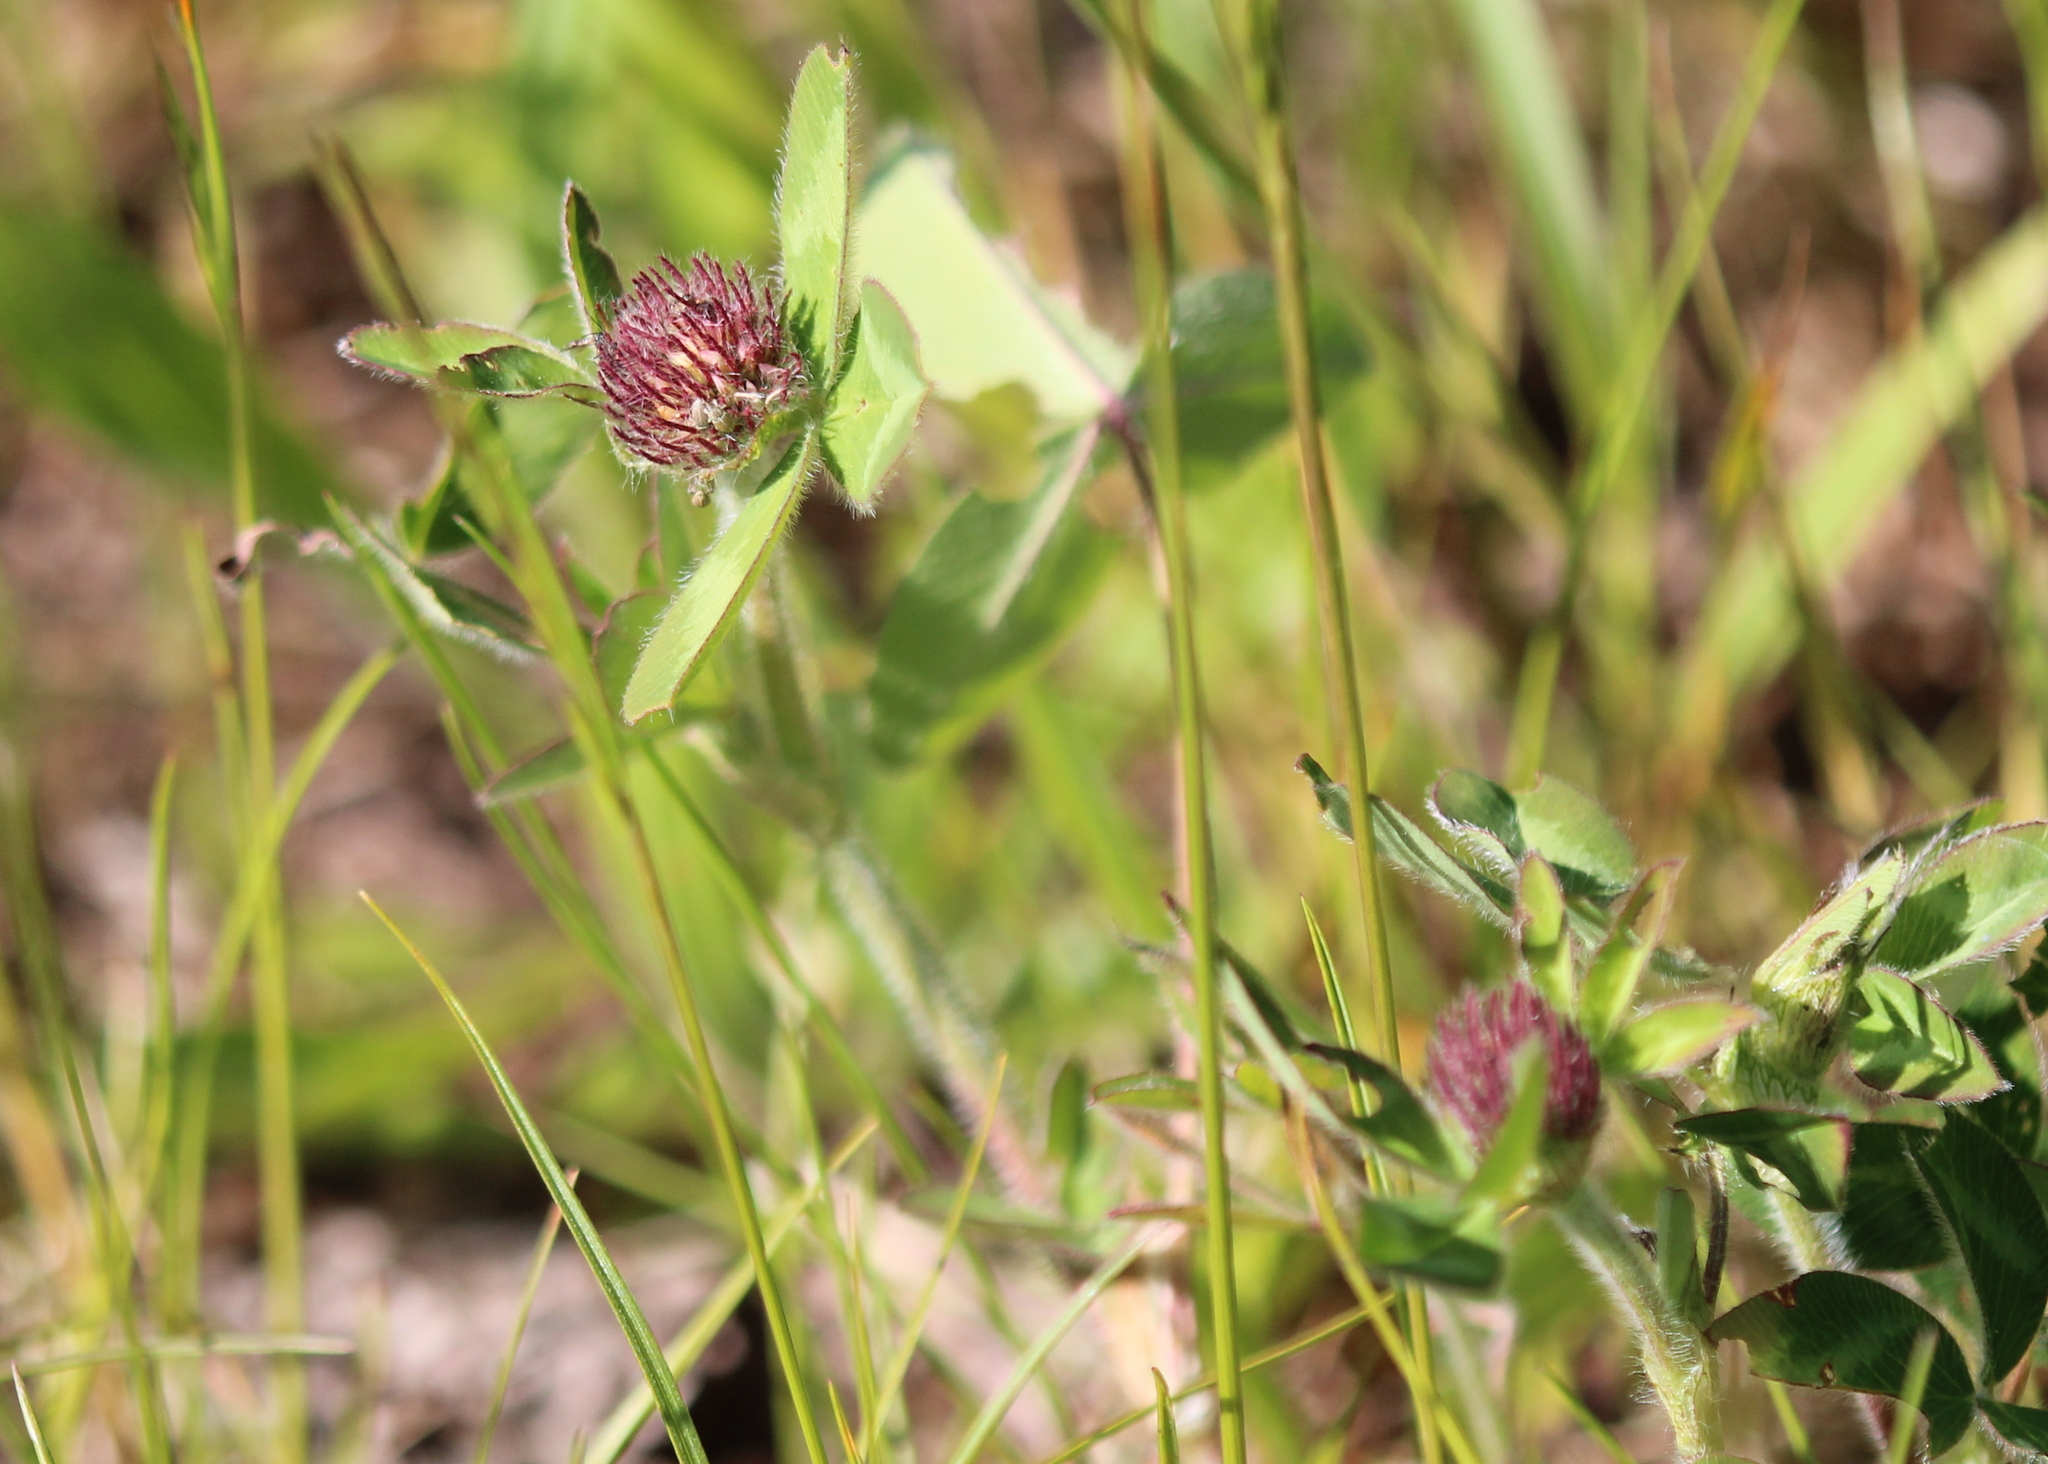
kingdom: Plantae
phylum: Tracheophyta
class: Magnoliopsida
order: Fabales
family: Fabaceae
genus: Trifolium
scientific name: Trifolium pratense
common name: Red clover
